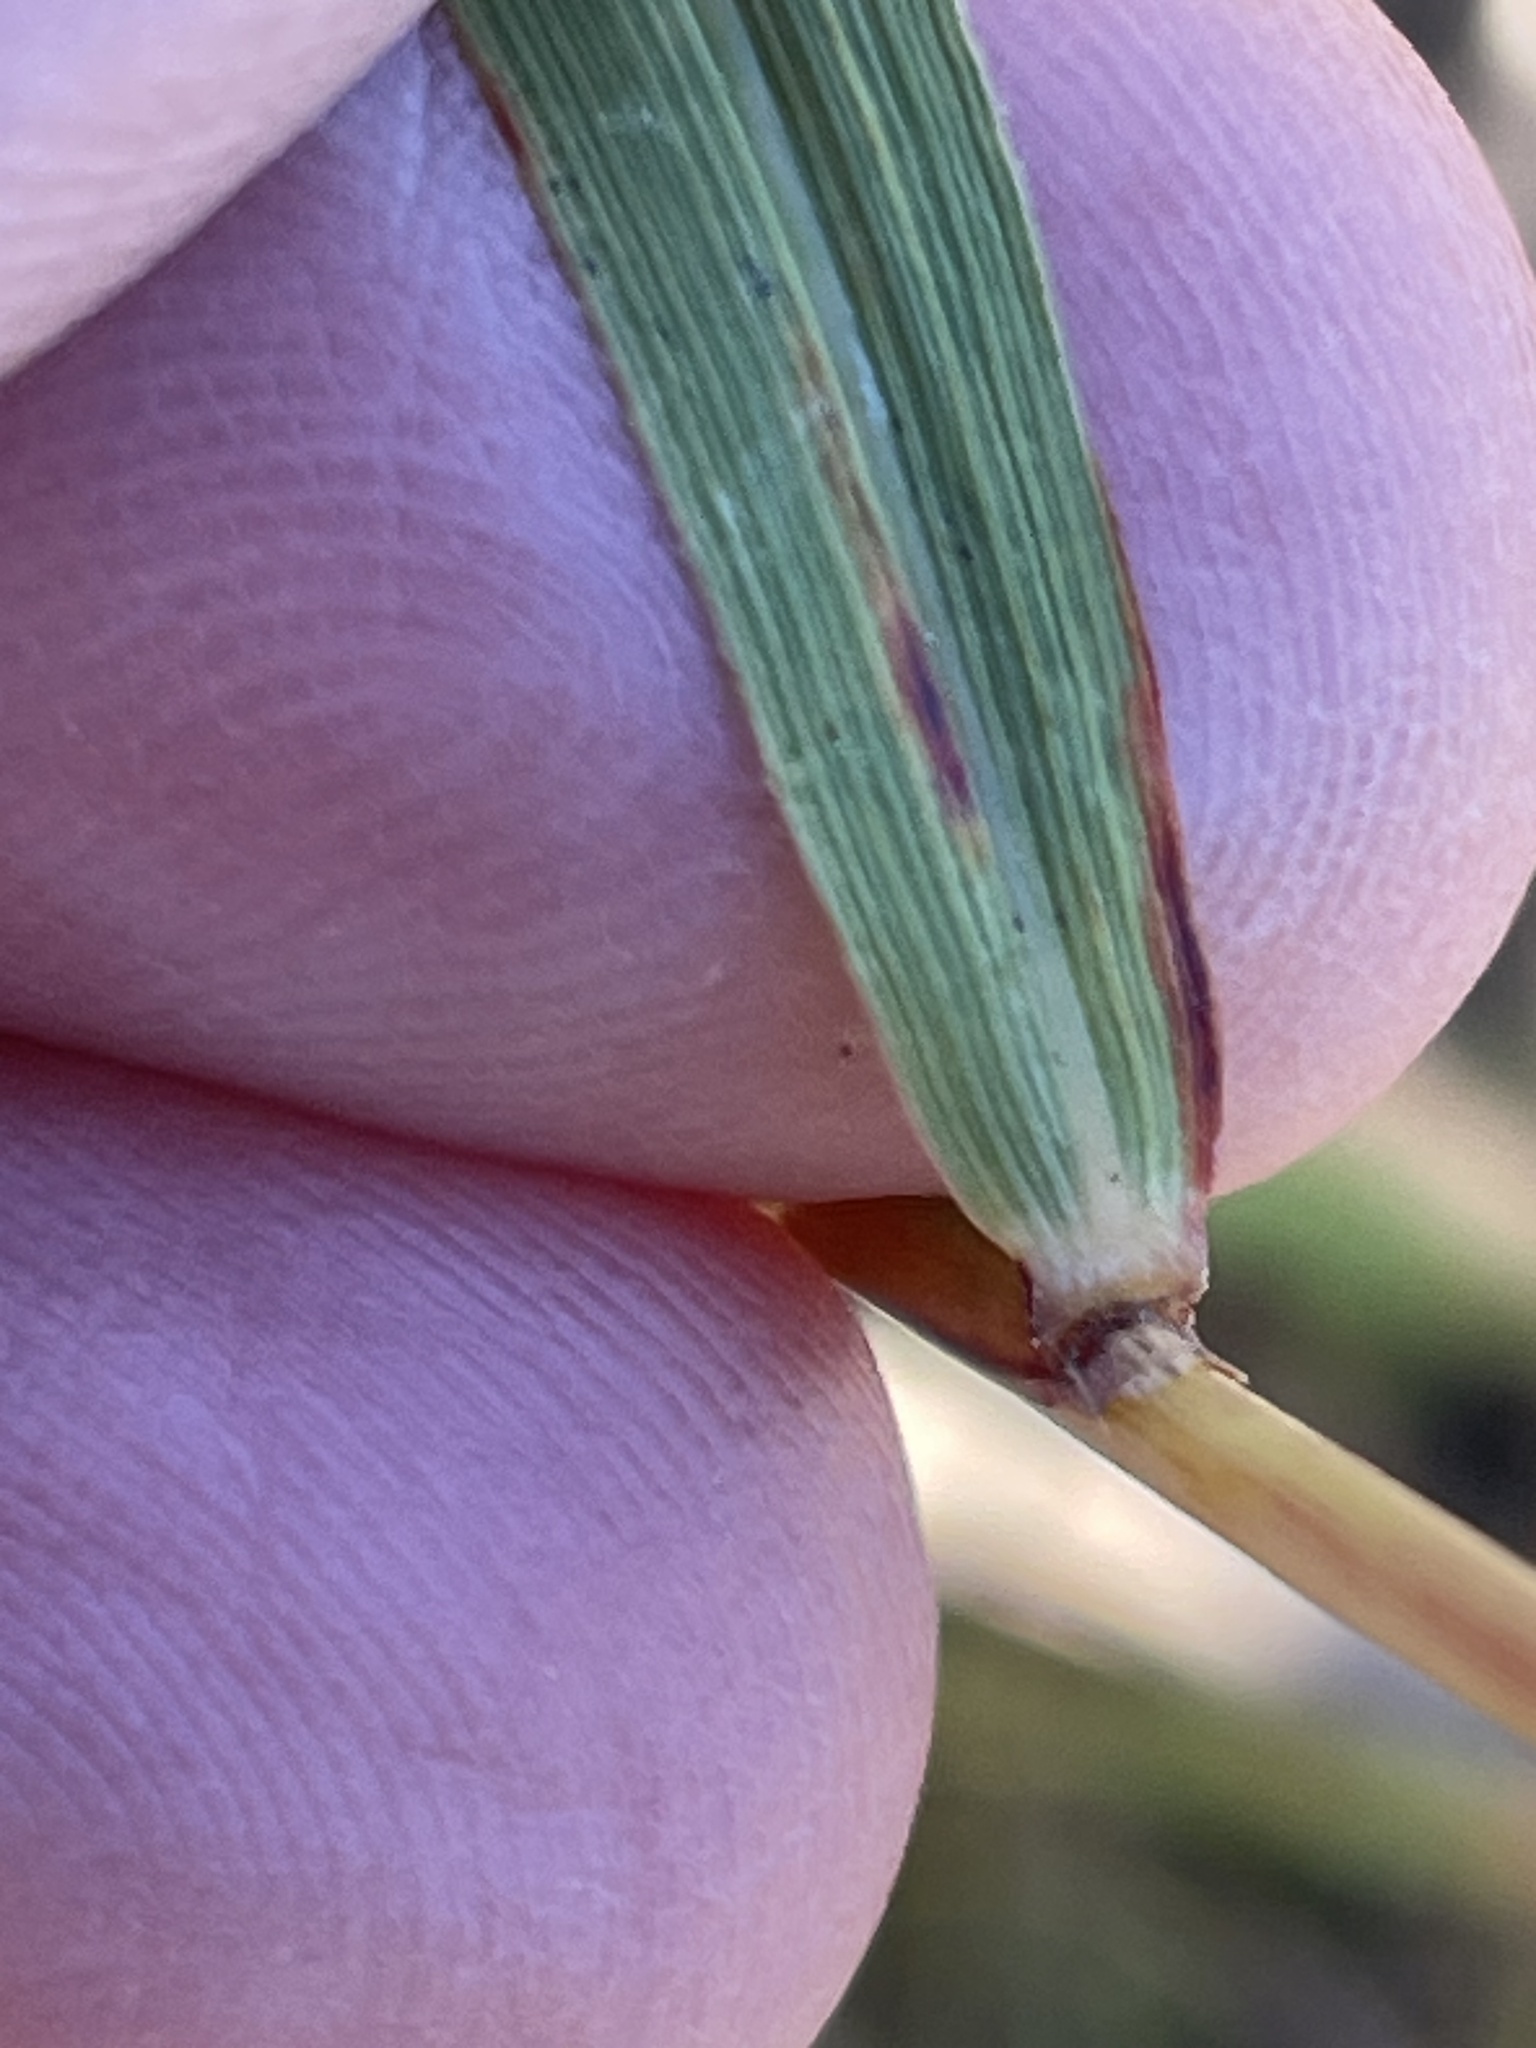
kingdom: Plantae
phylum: Tracheophyta
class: Liliopsida
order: Poales
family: Poaceae
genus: Sorghastrum
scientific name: Sorghastrum nutans
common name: Indian grass
